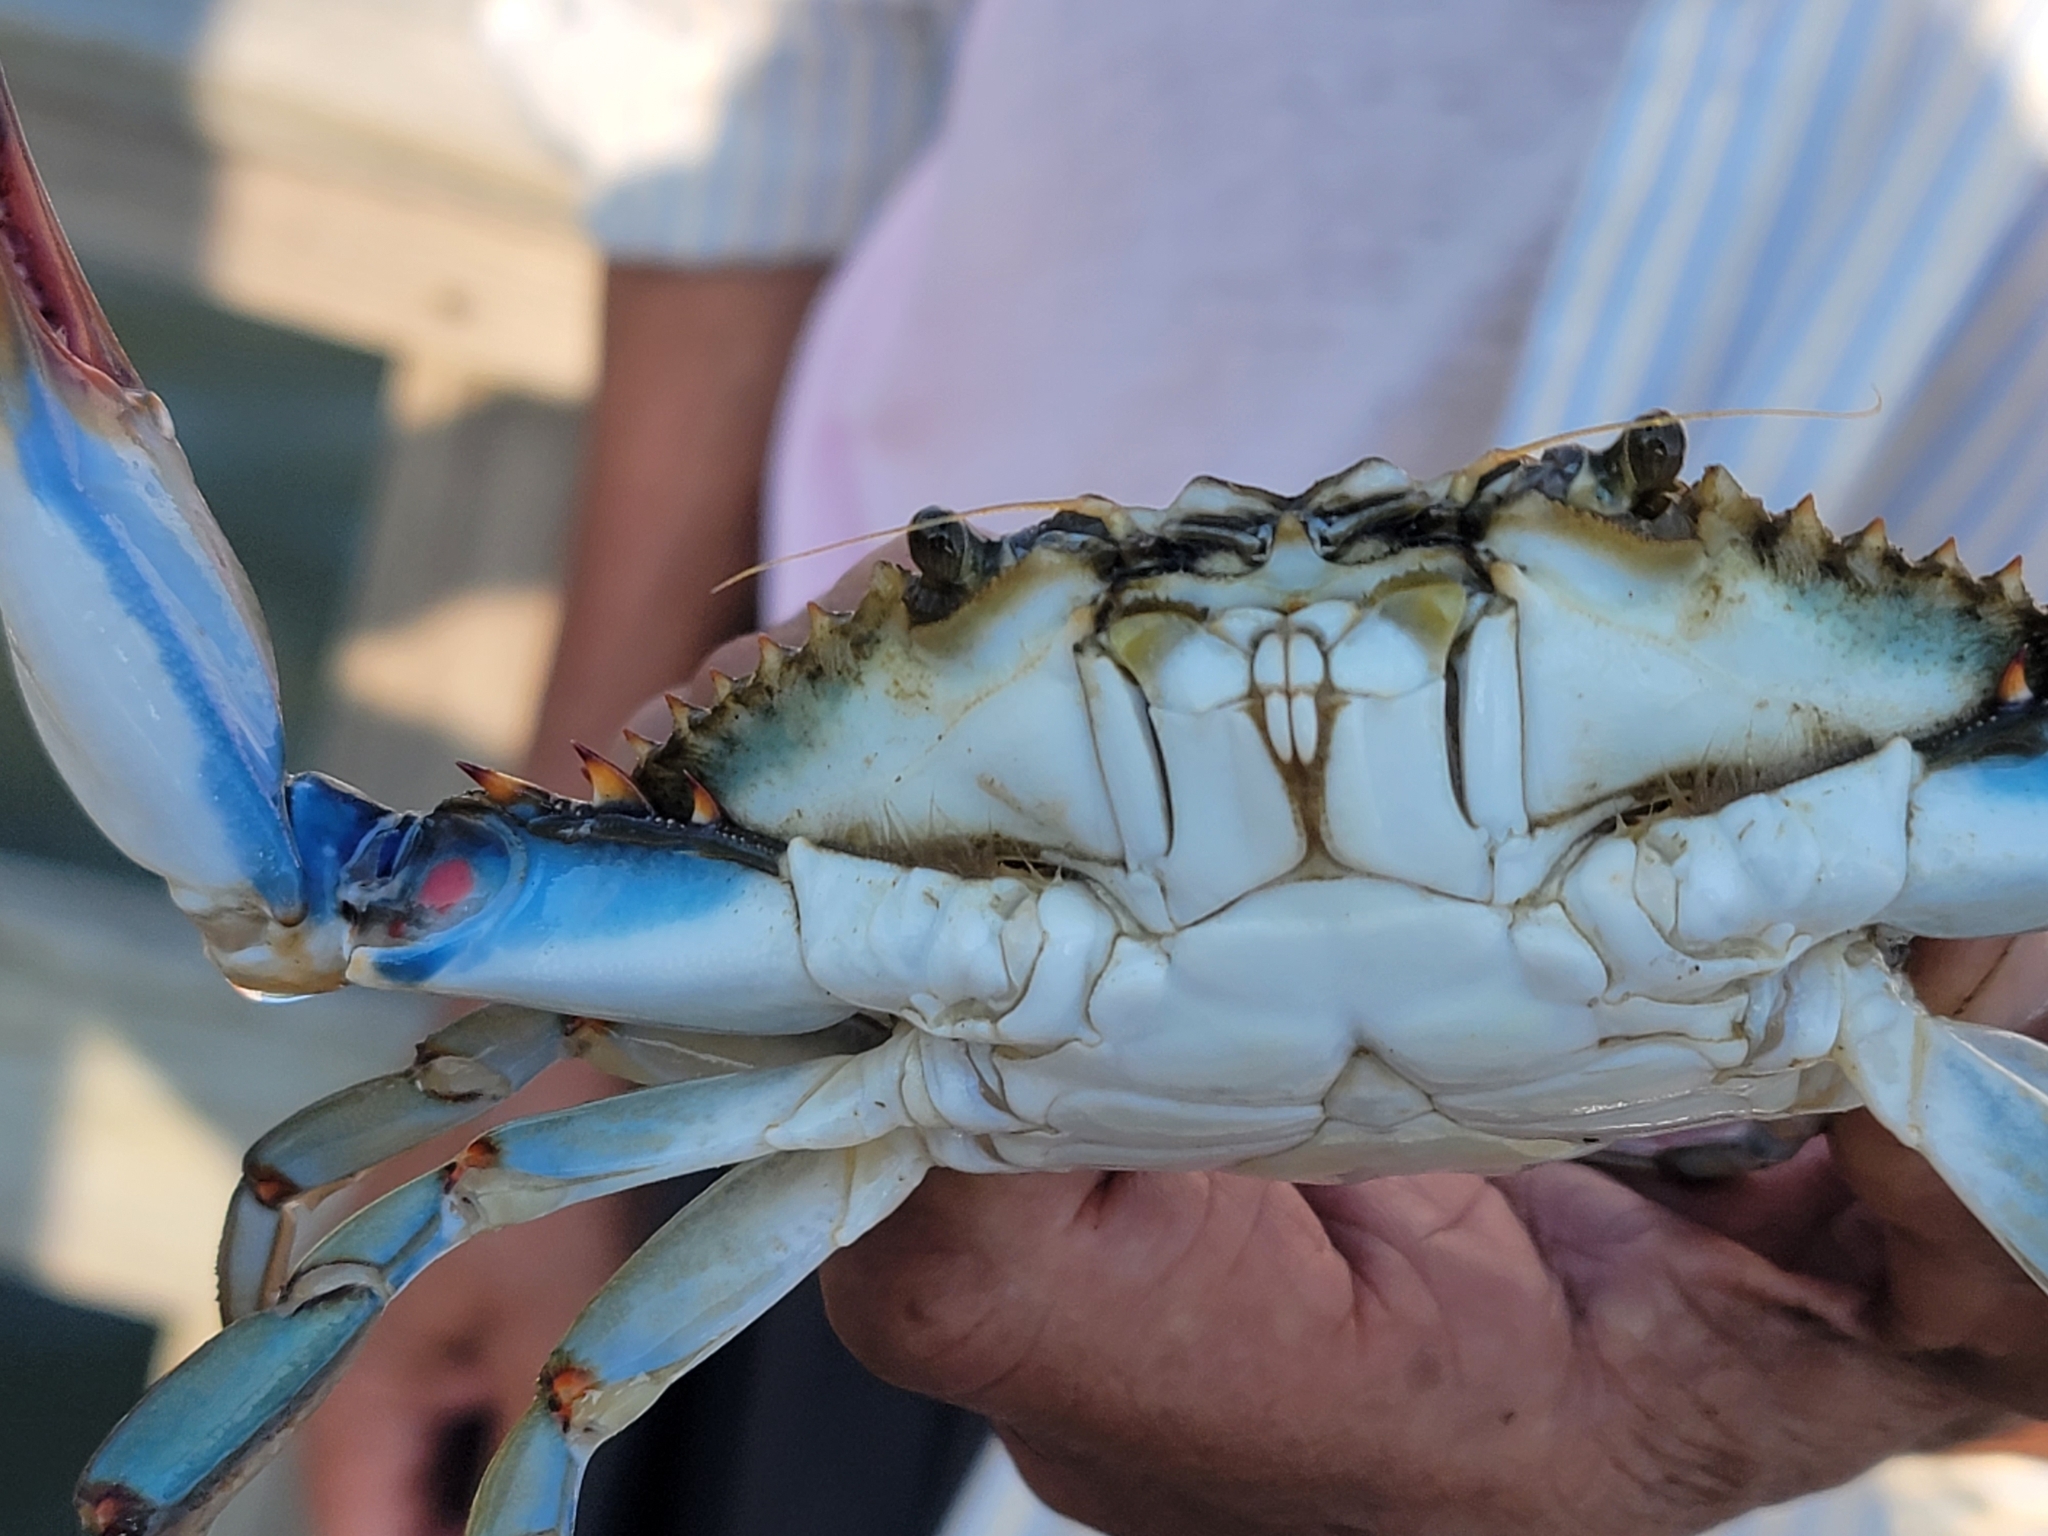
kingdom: Animalia
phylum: Arthropoda
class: Malacostraca
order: Decapoda
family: Portunidae
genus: Callinectes
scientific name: Callinectes sapidus
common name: Blue crab
